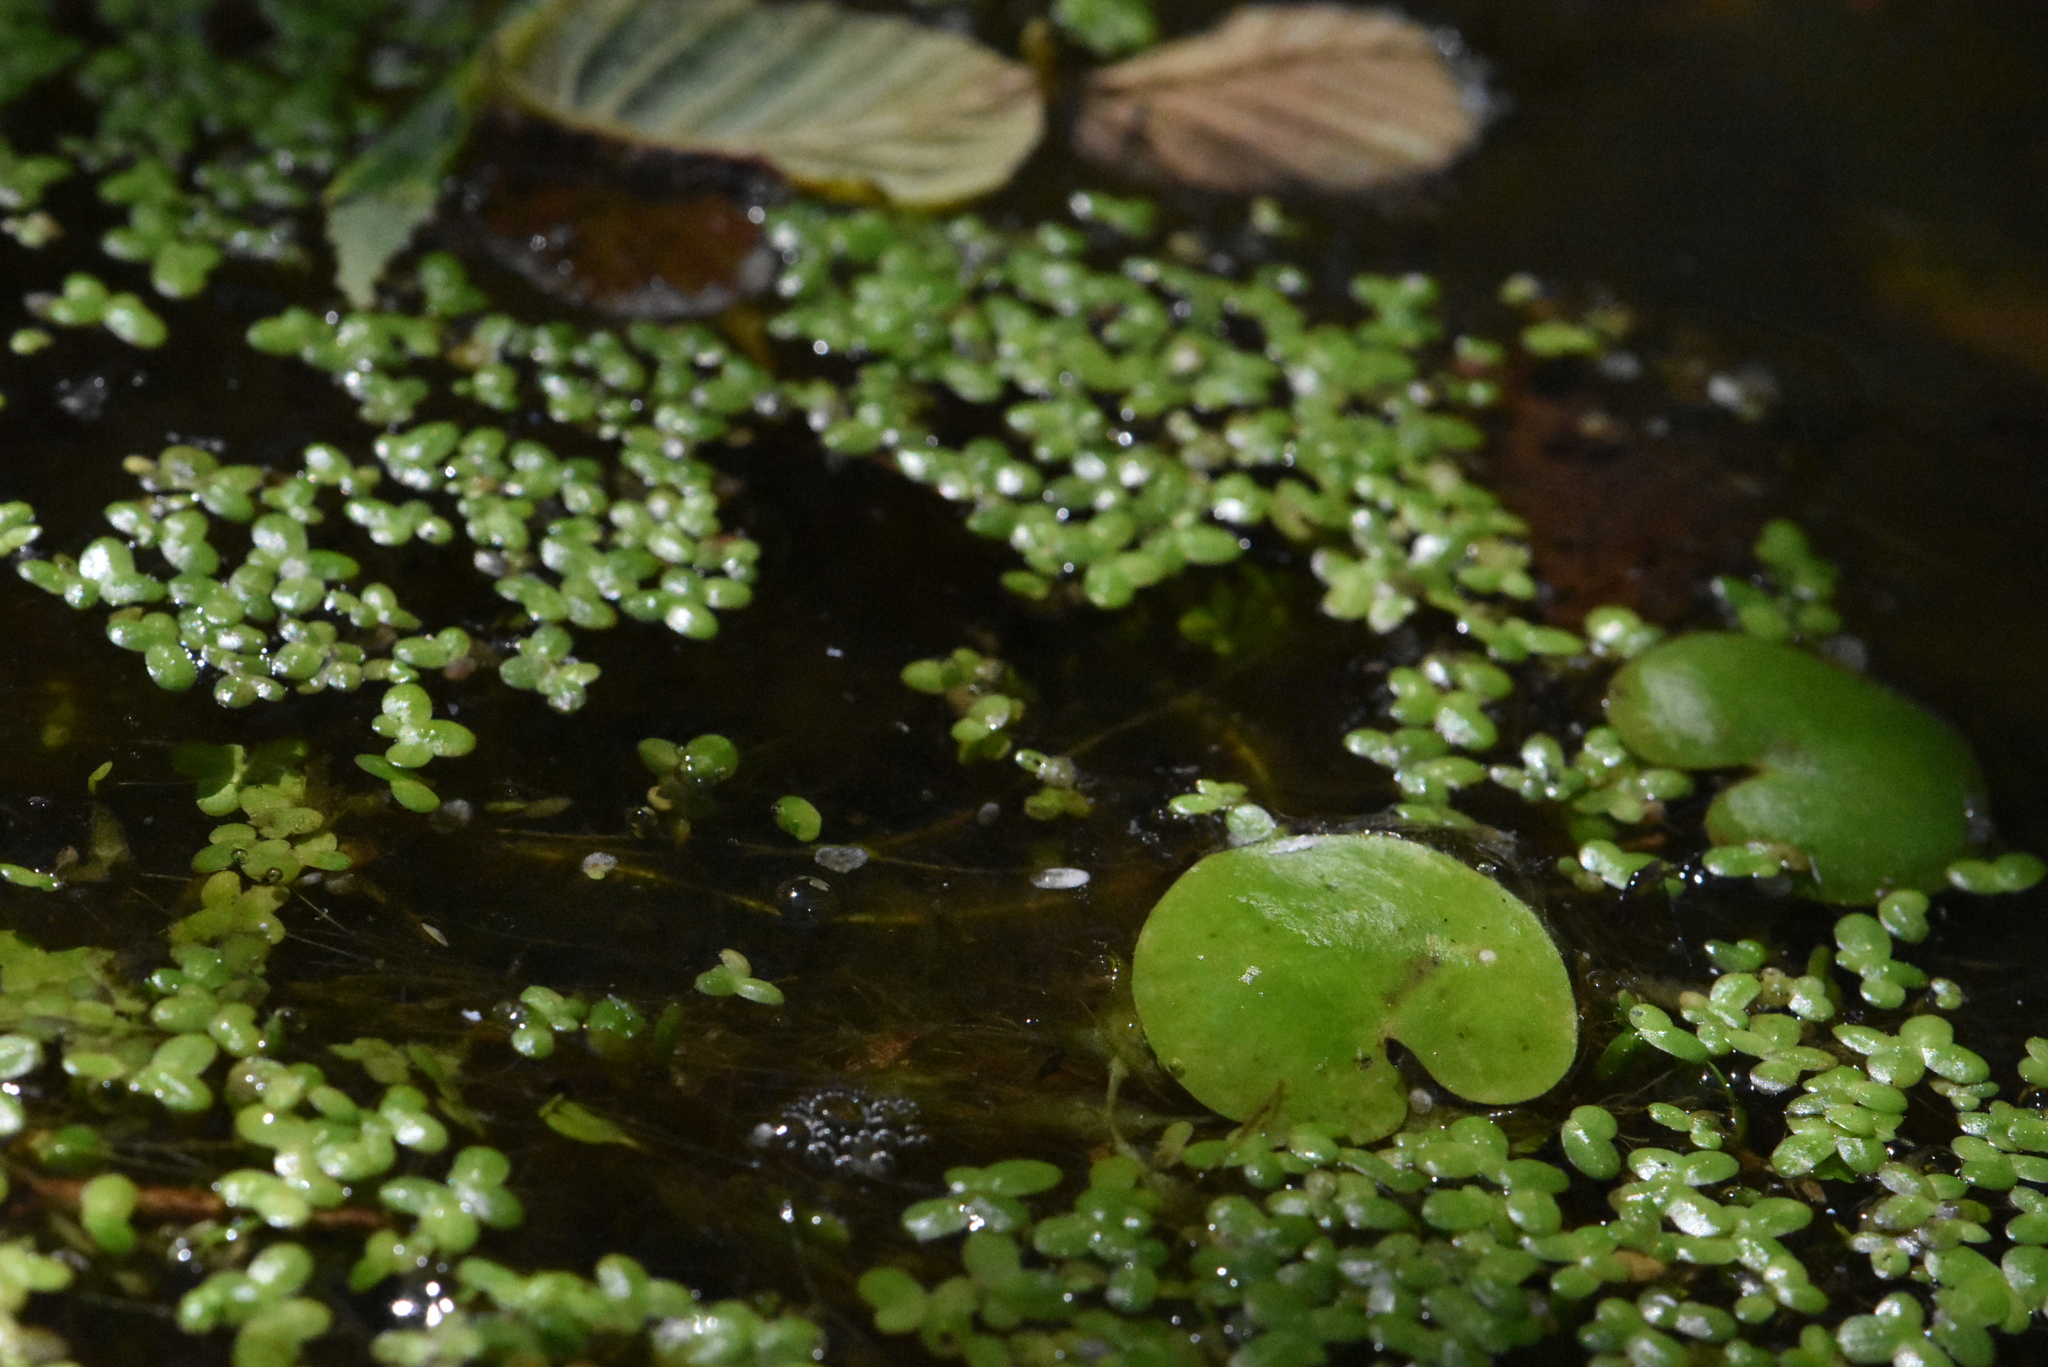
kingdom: Plantae
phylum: Tracheophyta
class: Liliopsida
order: Alismatales
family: Hydrocharitaceae
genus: Hydrocharis
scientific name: Hydrocharis morsus-ranae
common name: Frogbit
